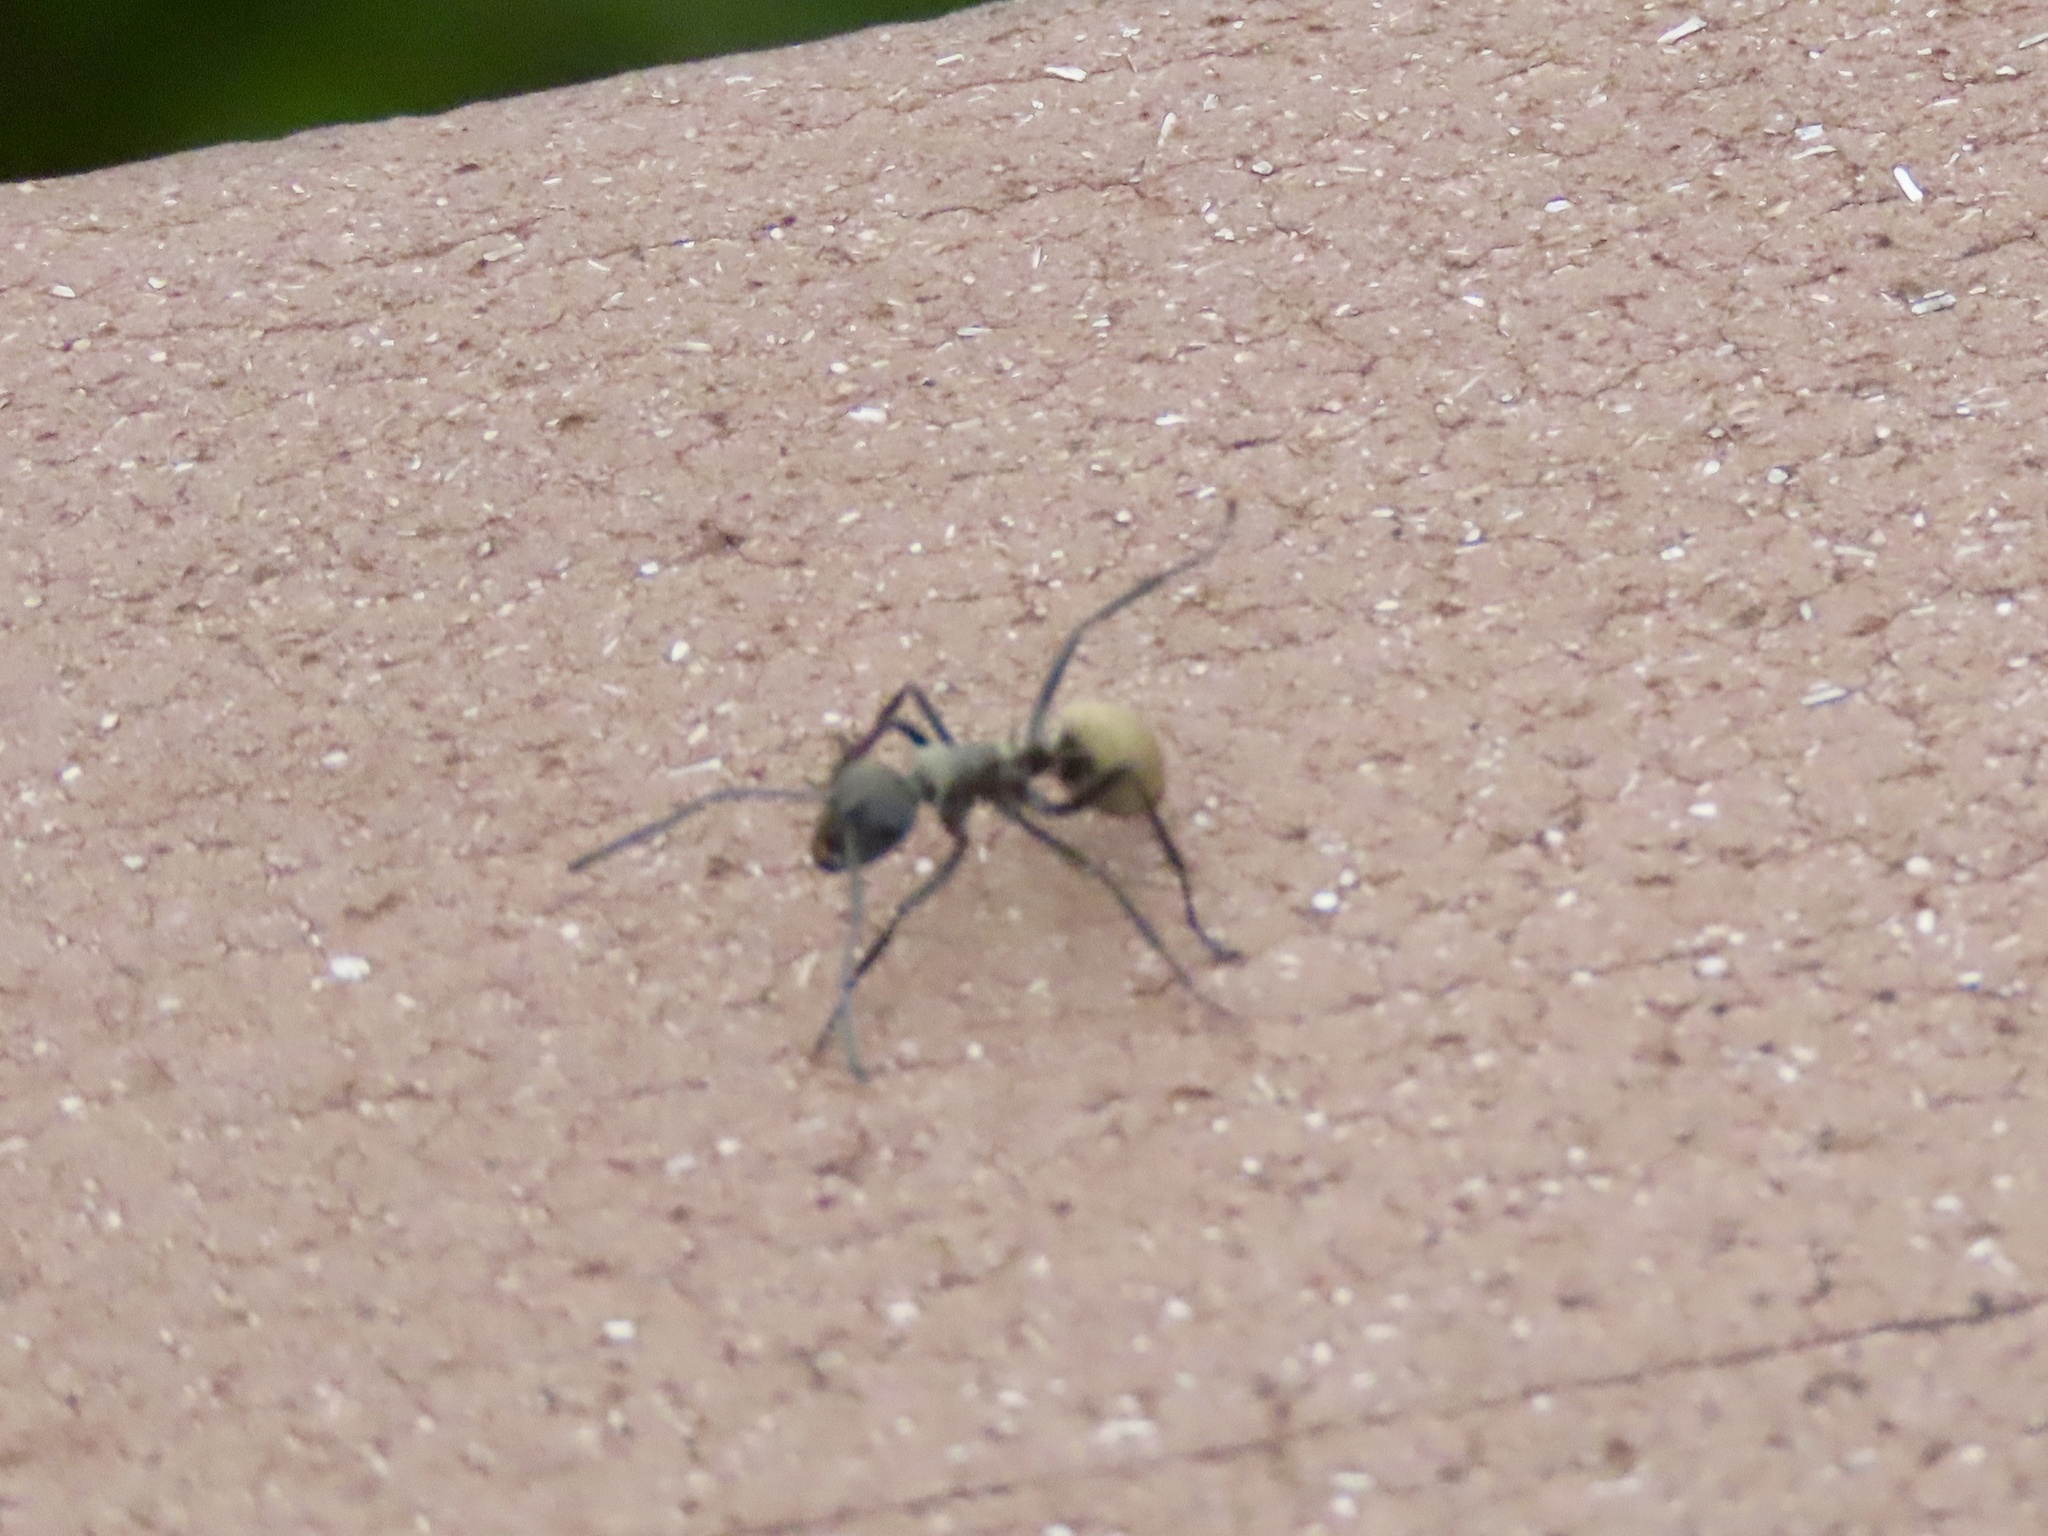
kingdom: Animalia
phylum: Arthropoda
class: Insecta
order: Hymenoptera
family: Formicidae
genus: Polyrhachis
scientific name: Polyrhachis dives
